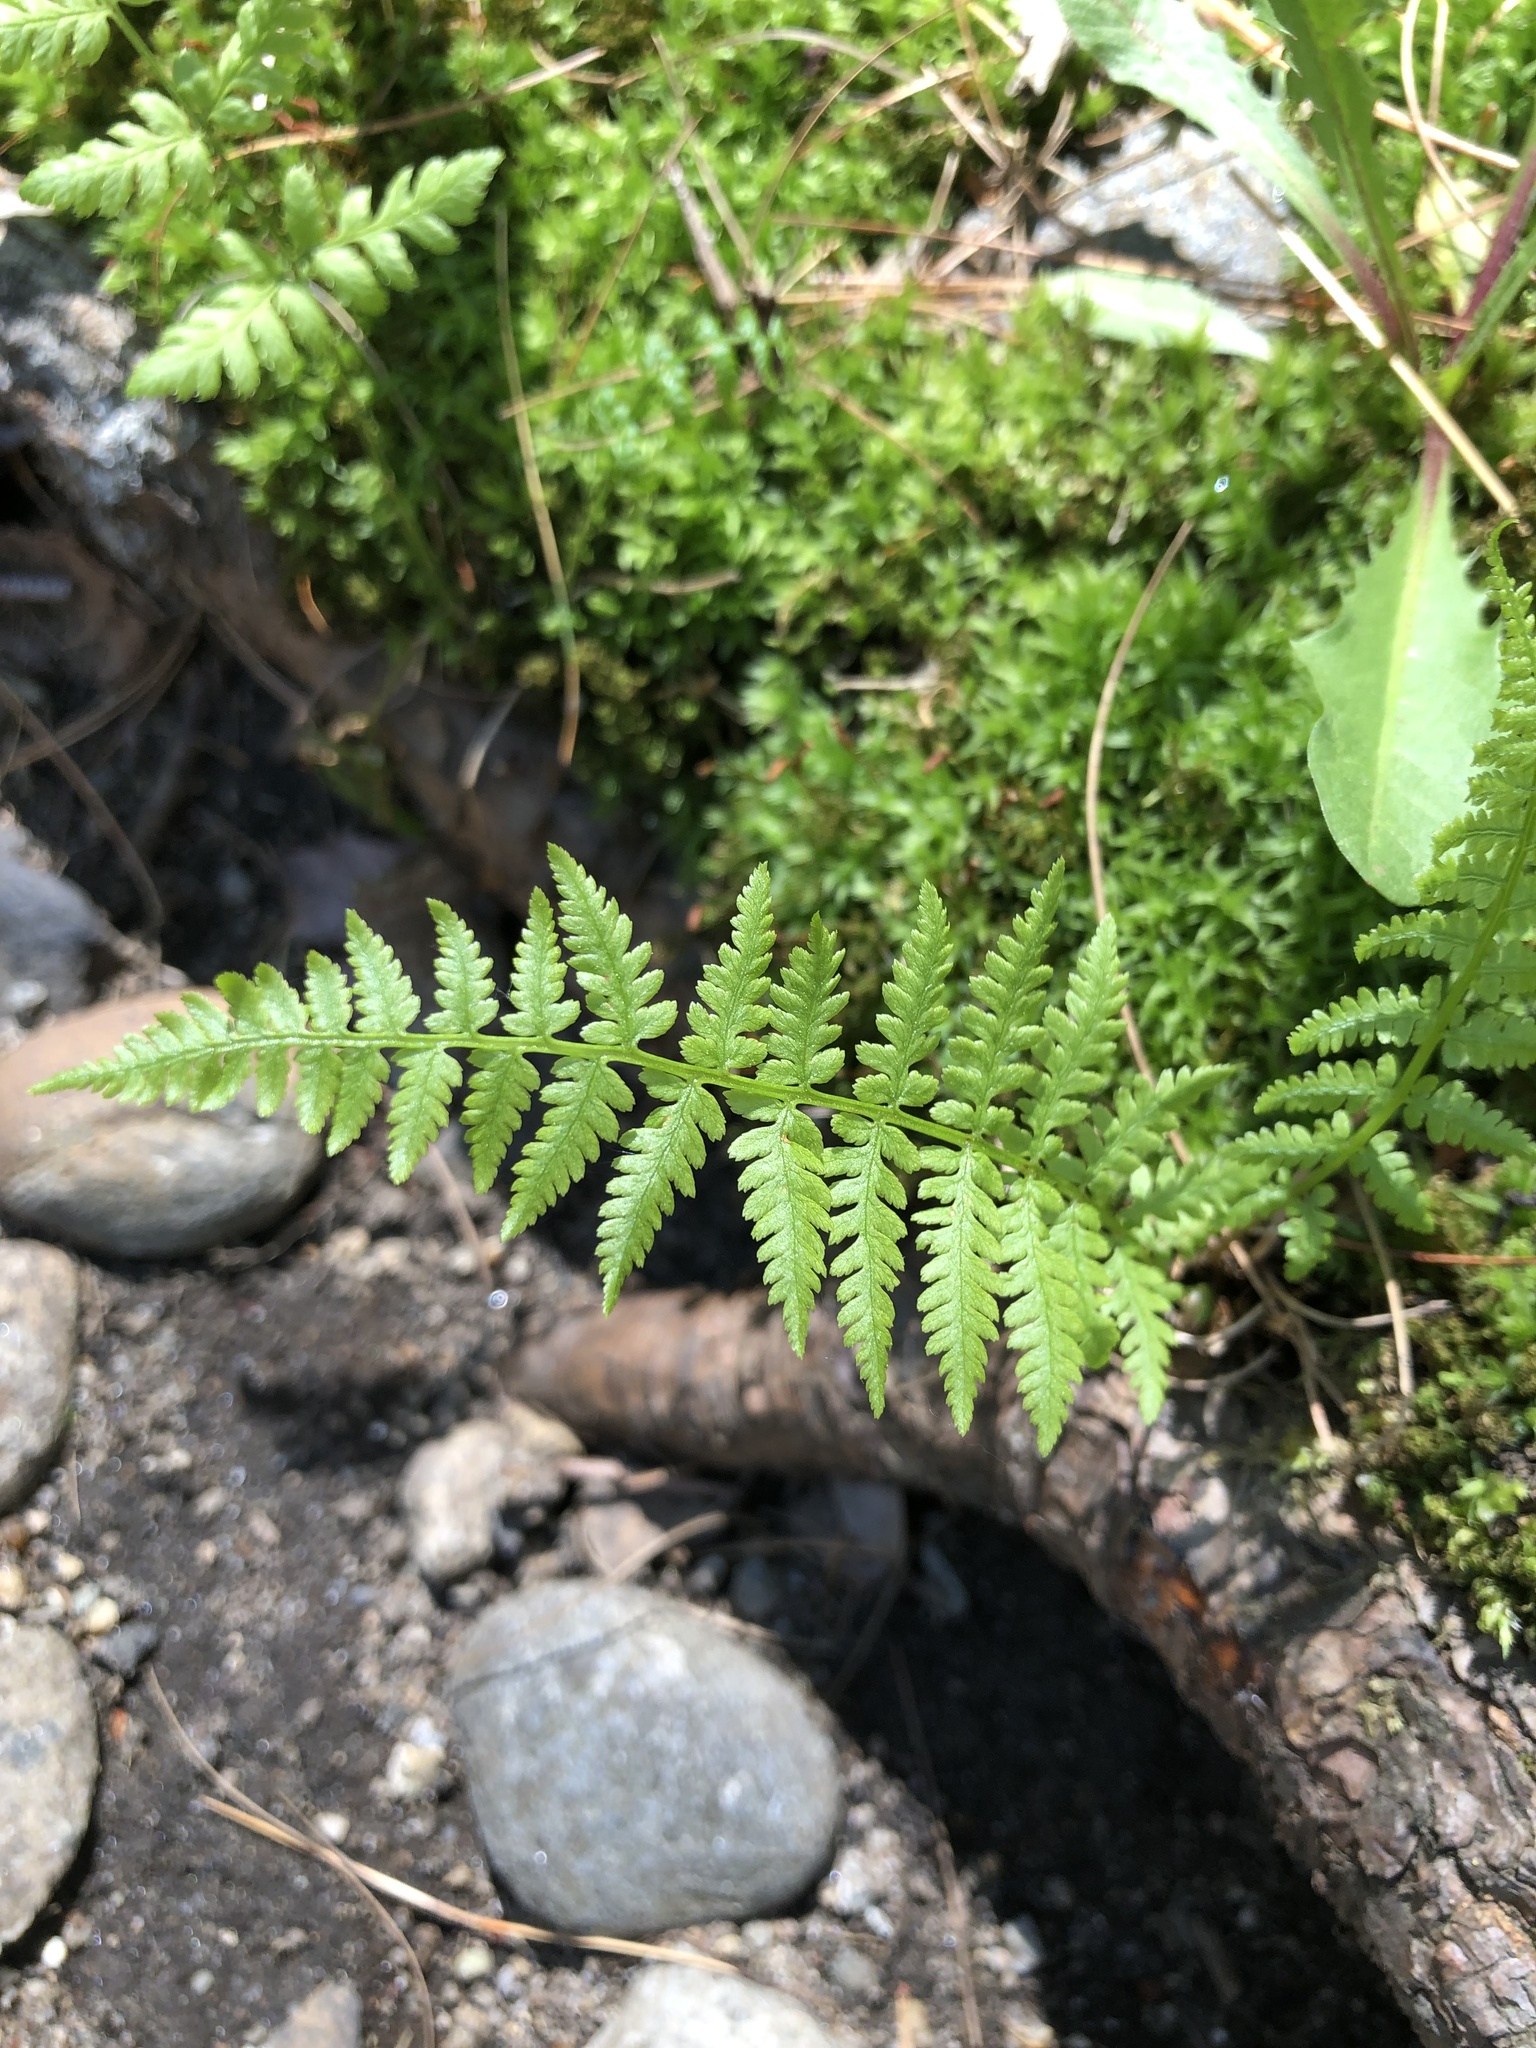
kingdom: Plantae
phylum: Tracheophyta
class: Polypodiopsida
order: Polypodiales
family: Athyriaceae
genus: Athyrium
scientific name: Athyrium angustum
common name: Northern lady fern
